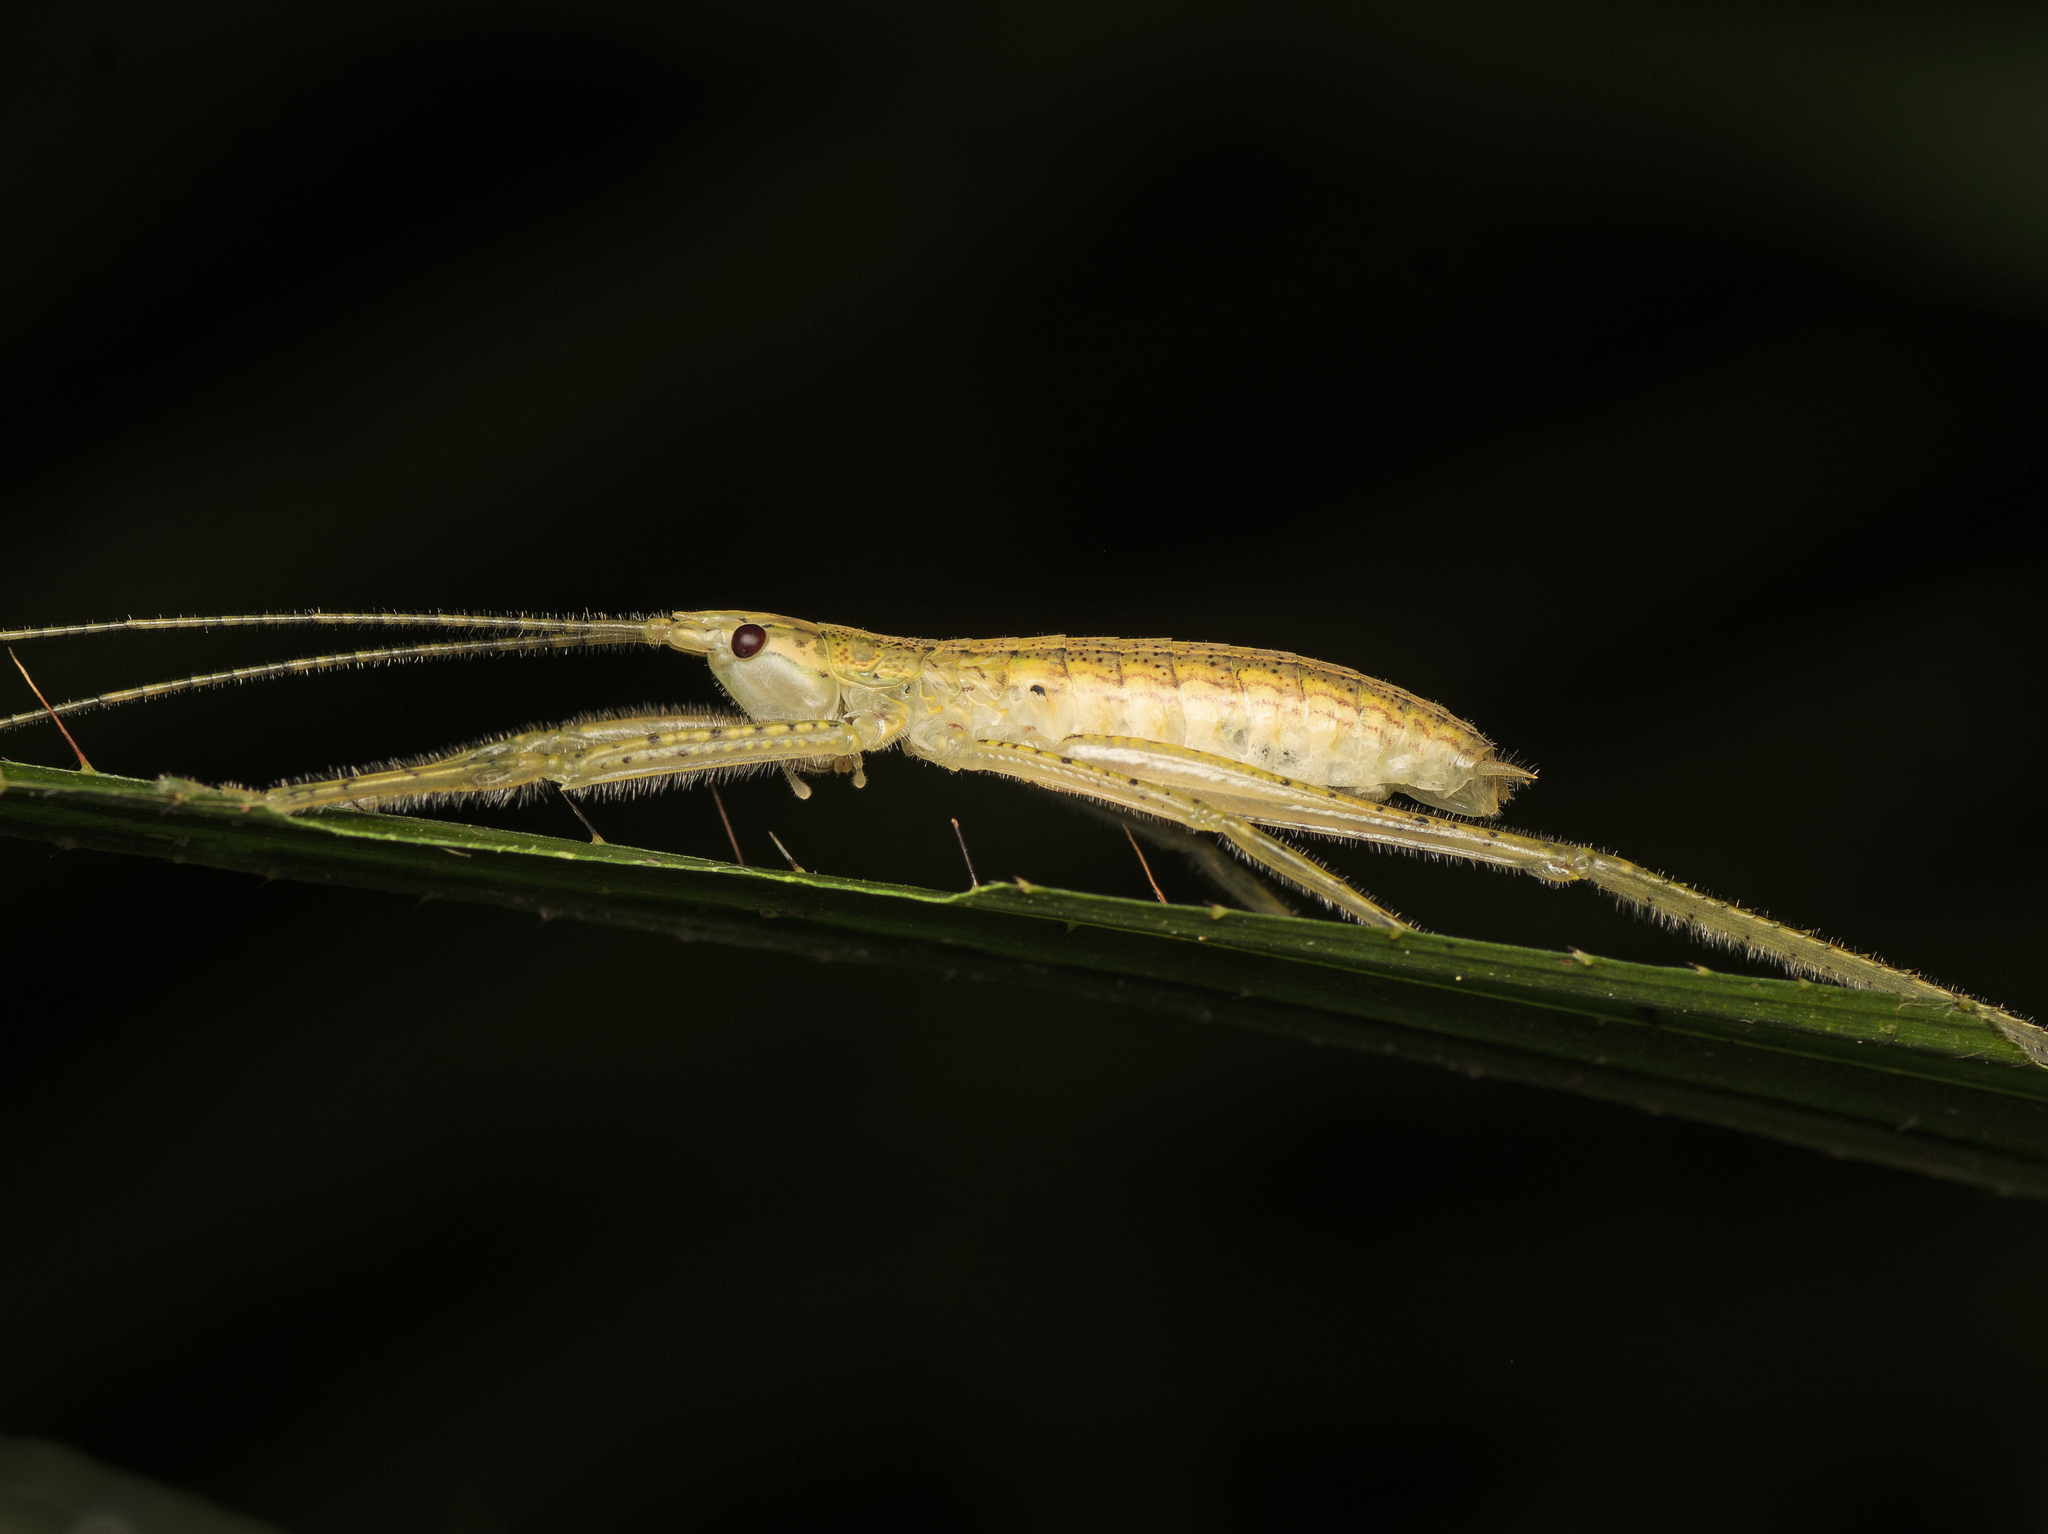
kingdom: Animalia
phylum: Arthropoda
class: Insecta
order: Orthoptera
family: Tettigoniidae
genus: Segestidea
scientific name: Segestidea queenslandica
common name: Queensland palm katydid
